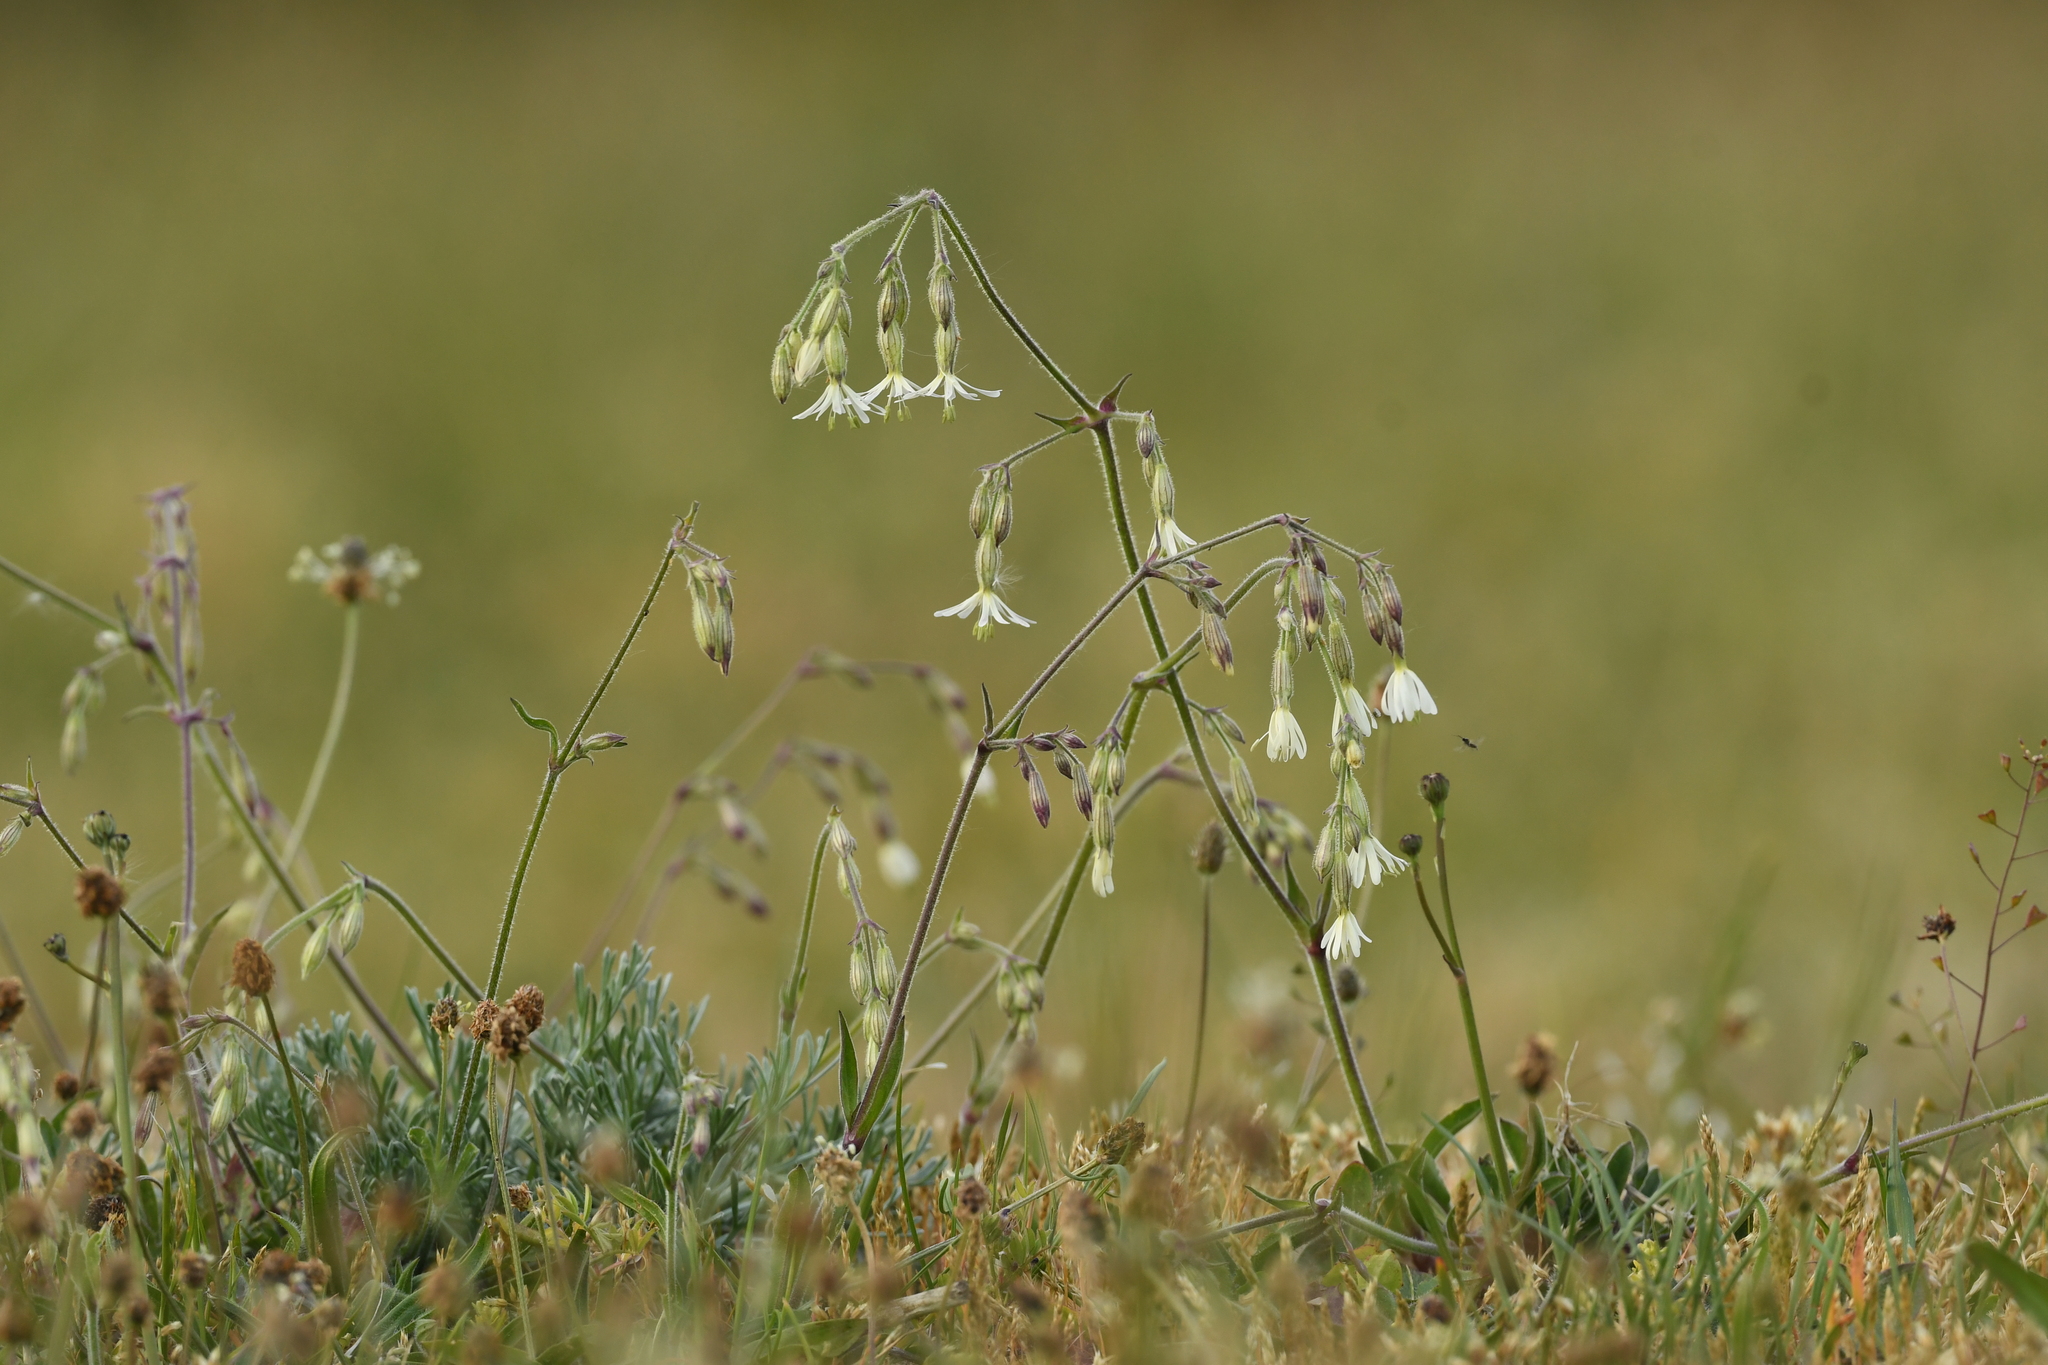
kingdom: Plantae
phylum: Tracheophyta
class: Magnoliopsida
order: Caryophyllales
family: Caryophyllaceae
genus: Silene
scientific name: Silene nutans
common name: Nottingham catchfly
